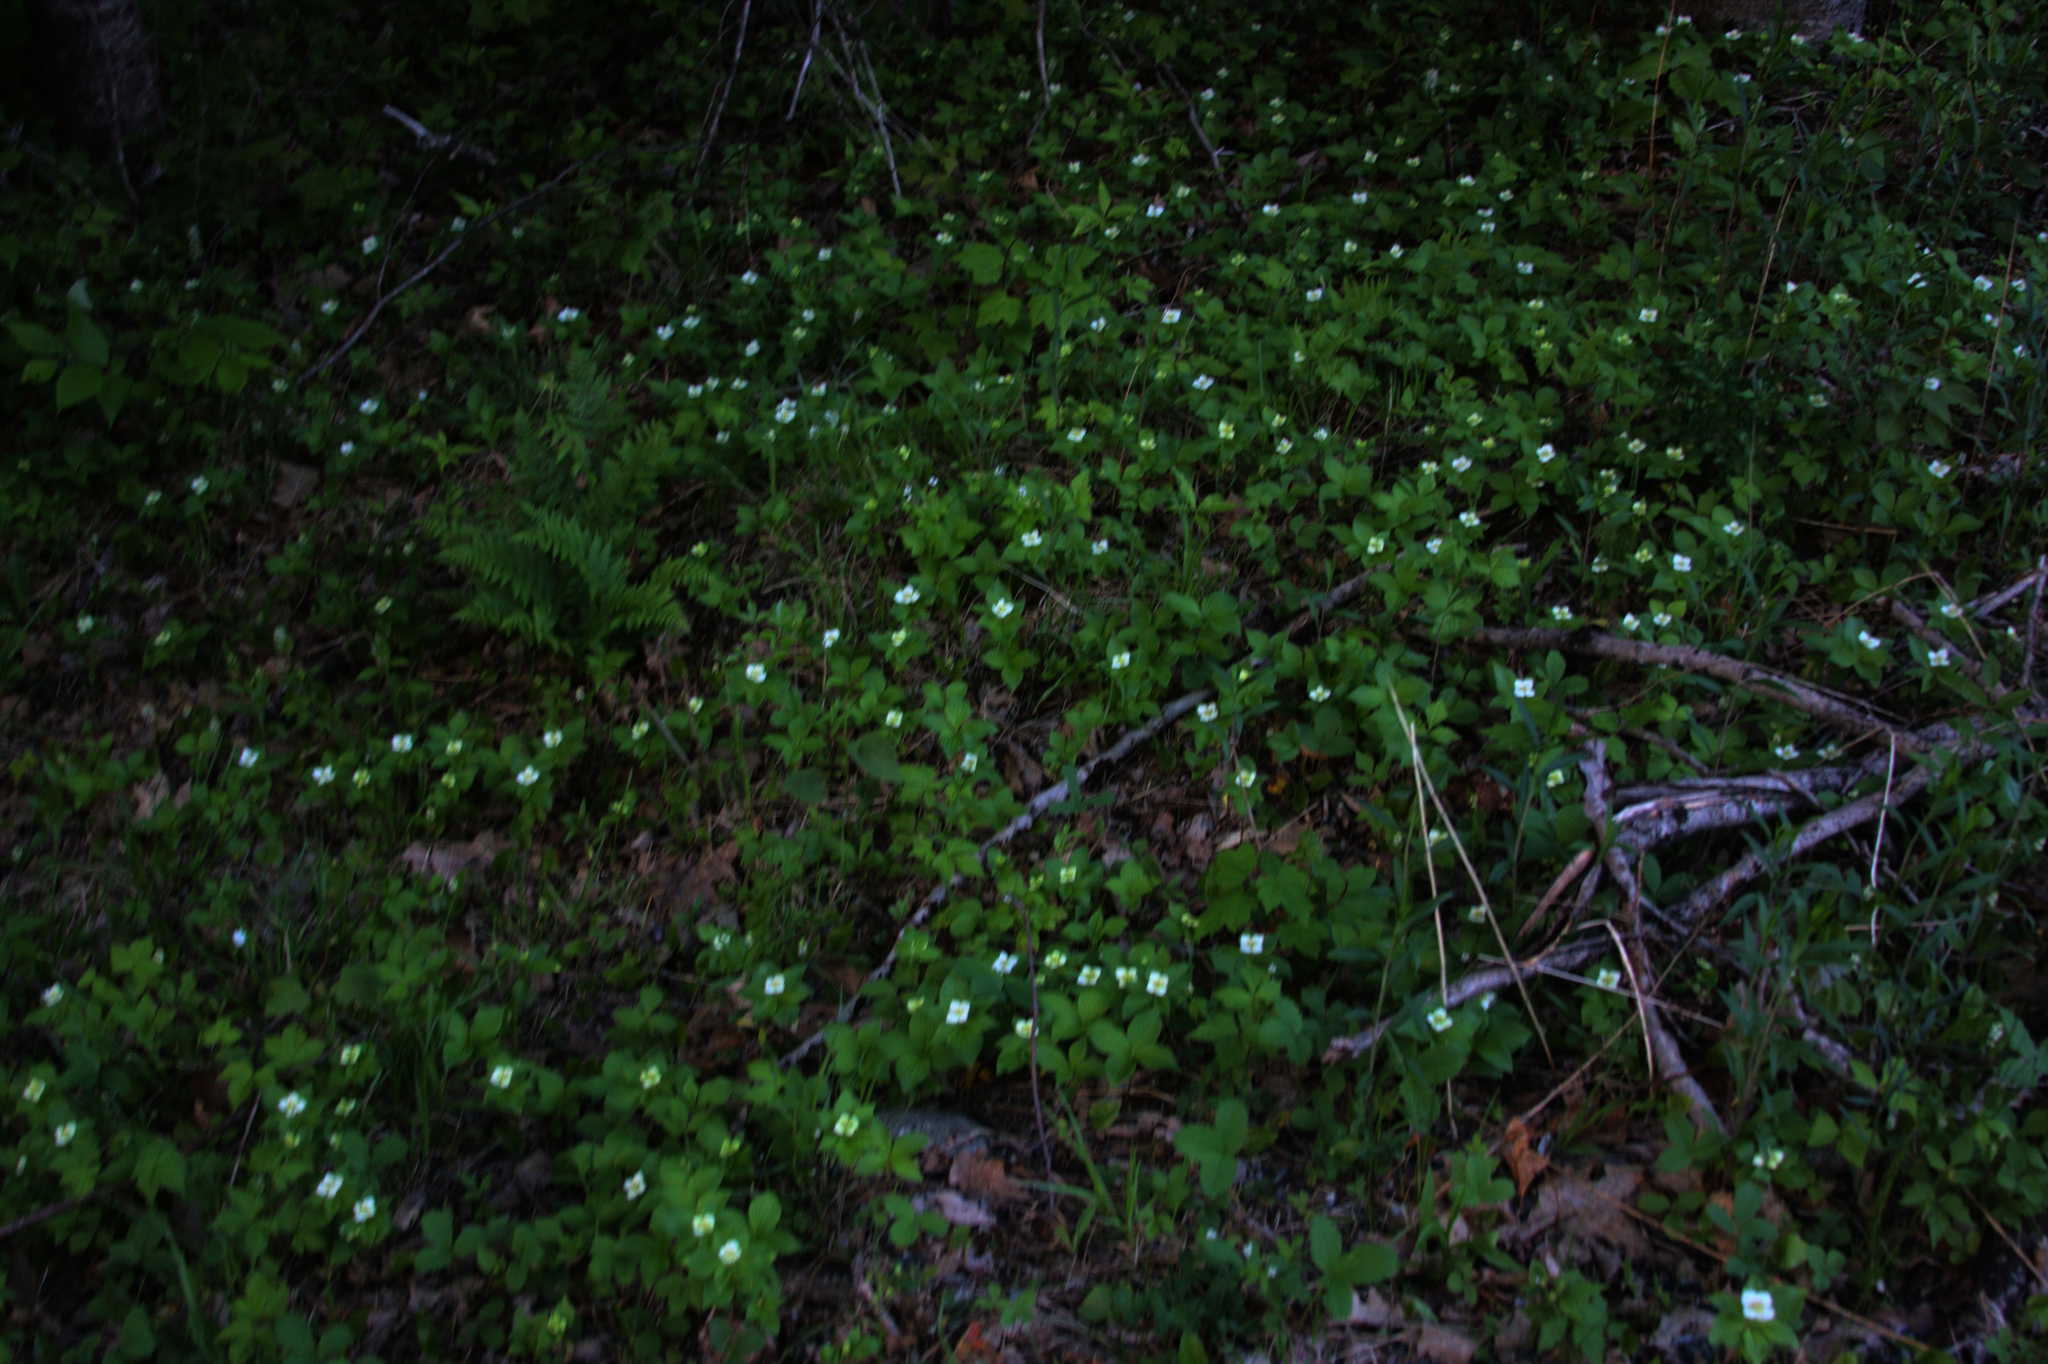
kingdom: Plantae
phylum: Tracheophyta
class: Magnoliopsida
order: Cornales
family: Cornaceae
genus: Cornus
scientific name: Cornus canadensis
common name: Creeping dogwood
